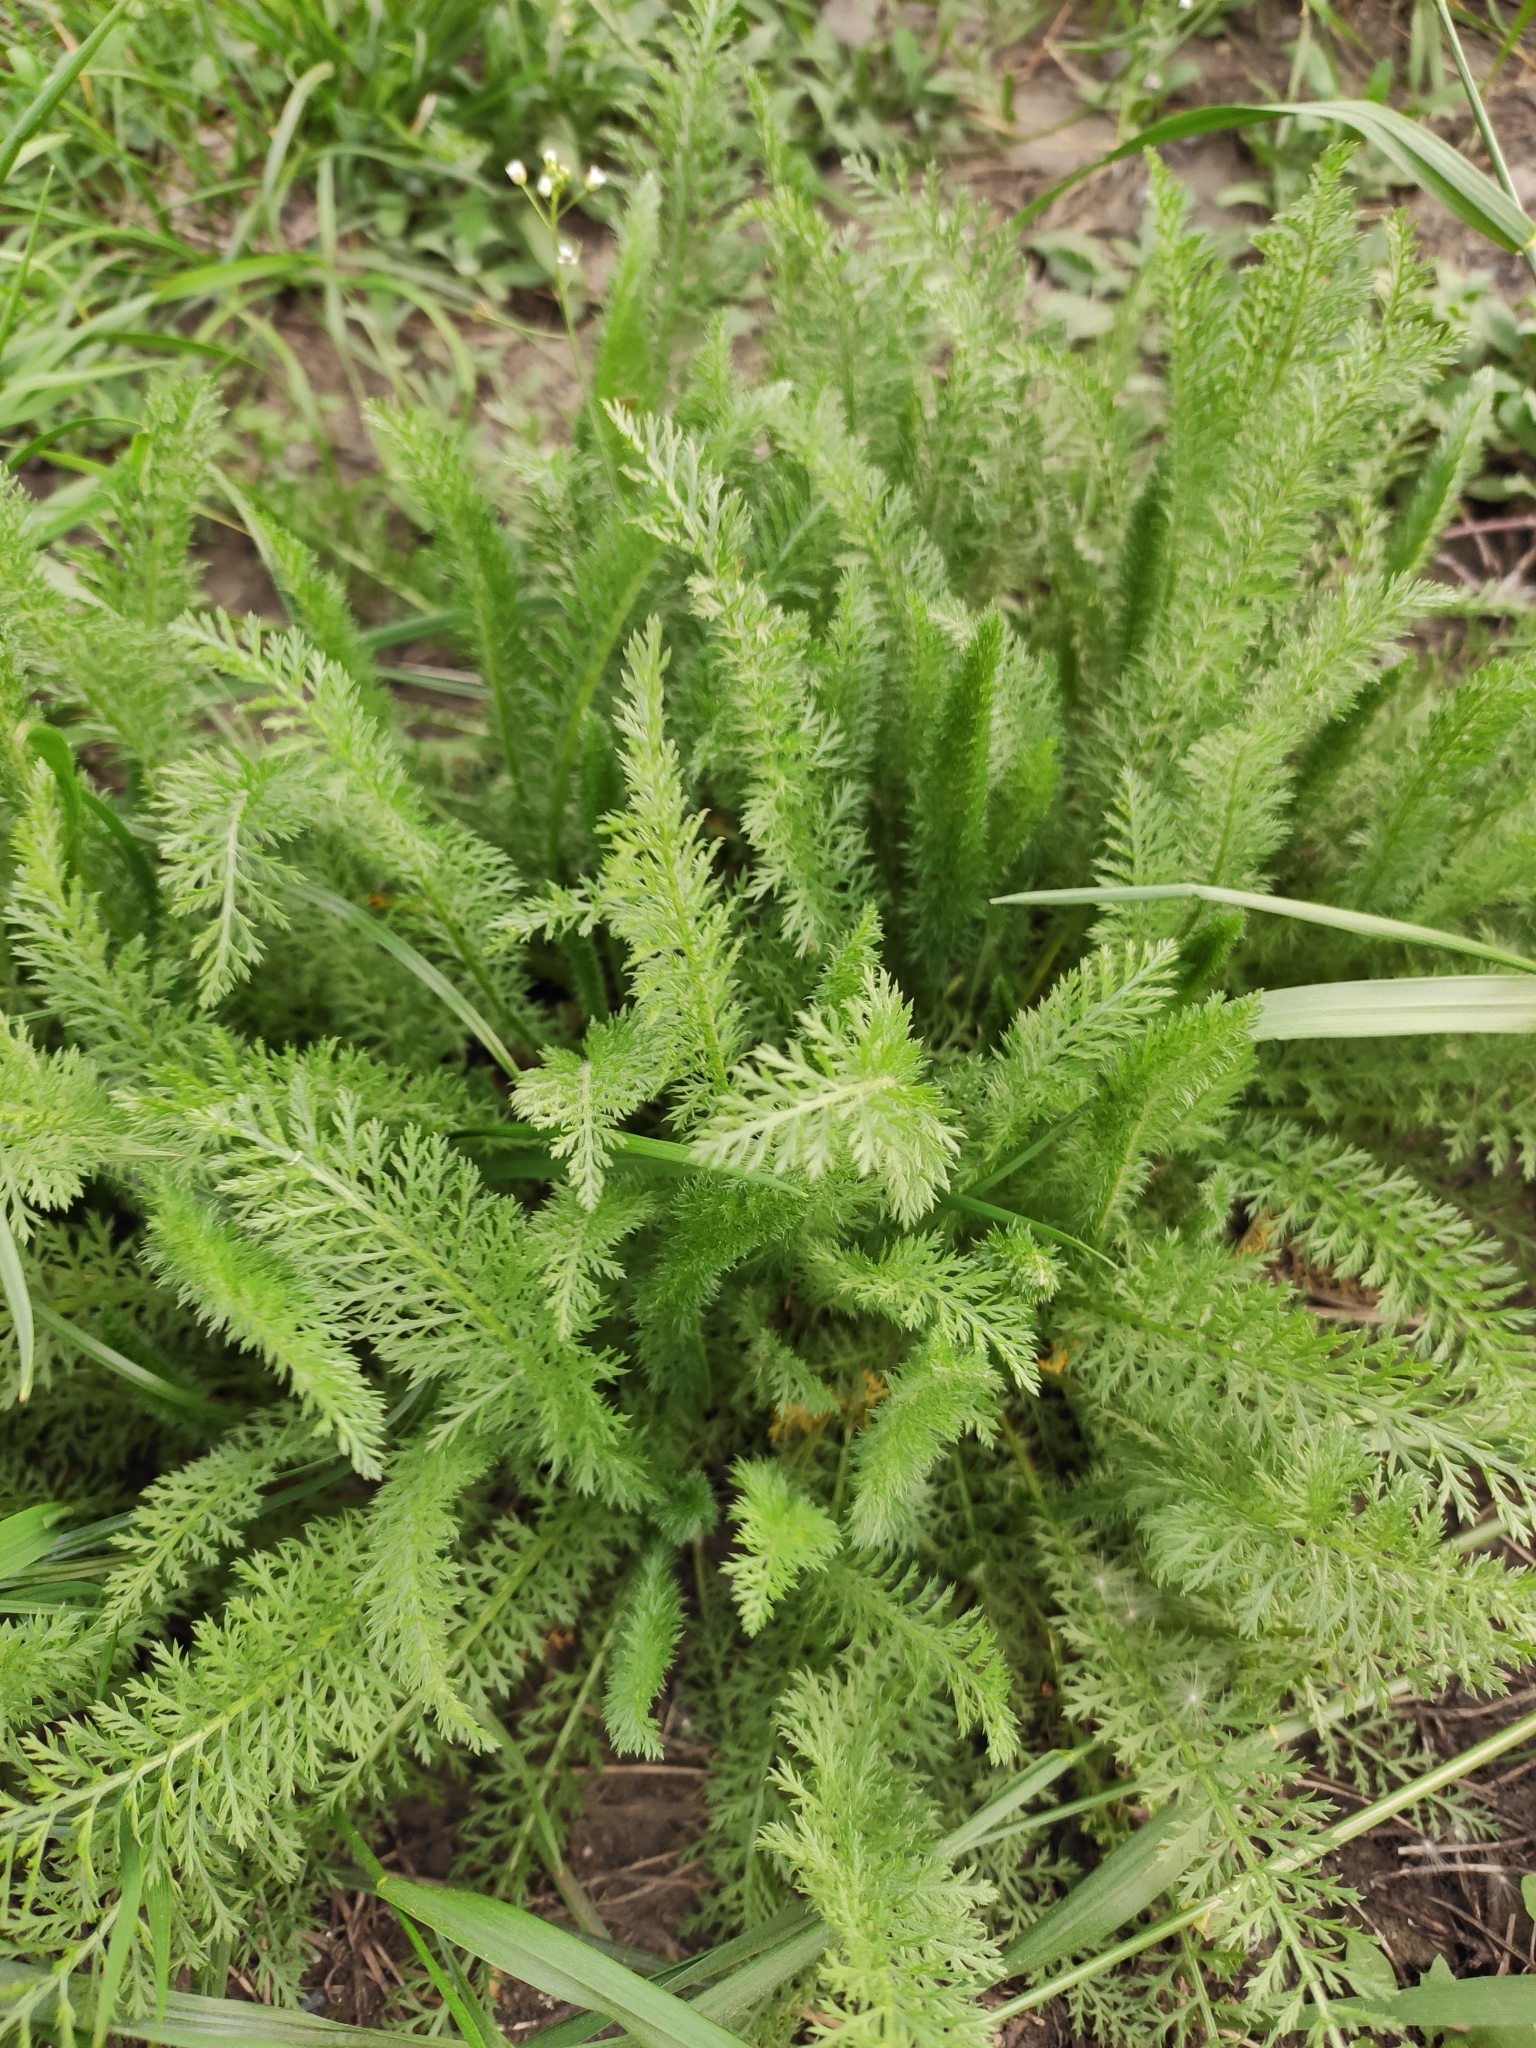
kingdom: Plantae
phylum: Tracheophyta
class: Magnoliopsida
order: Asterales
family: Asteraceae
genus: Achillea
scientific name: Achillea millefolium
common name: Yarrow
